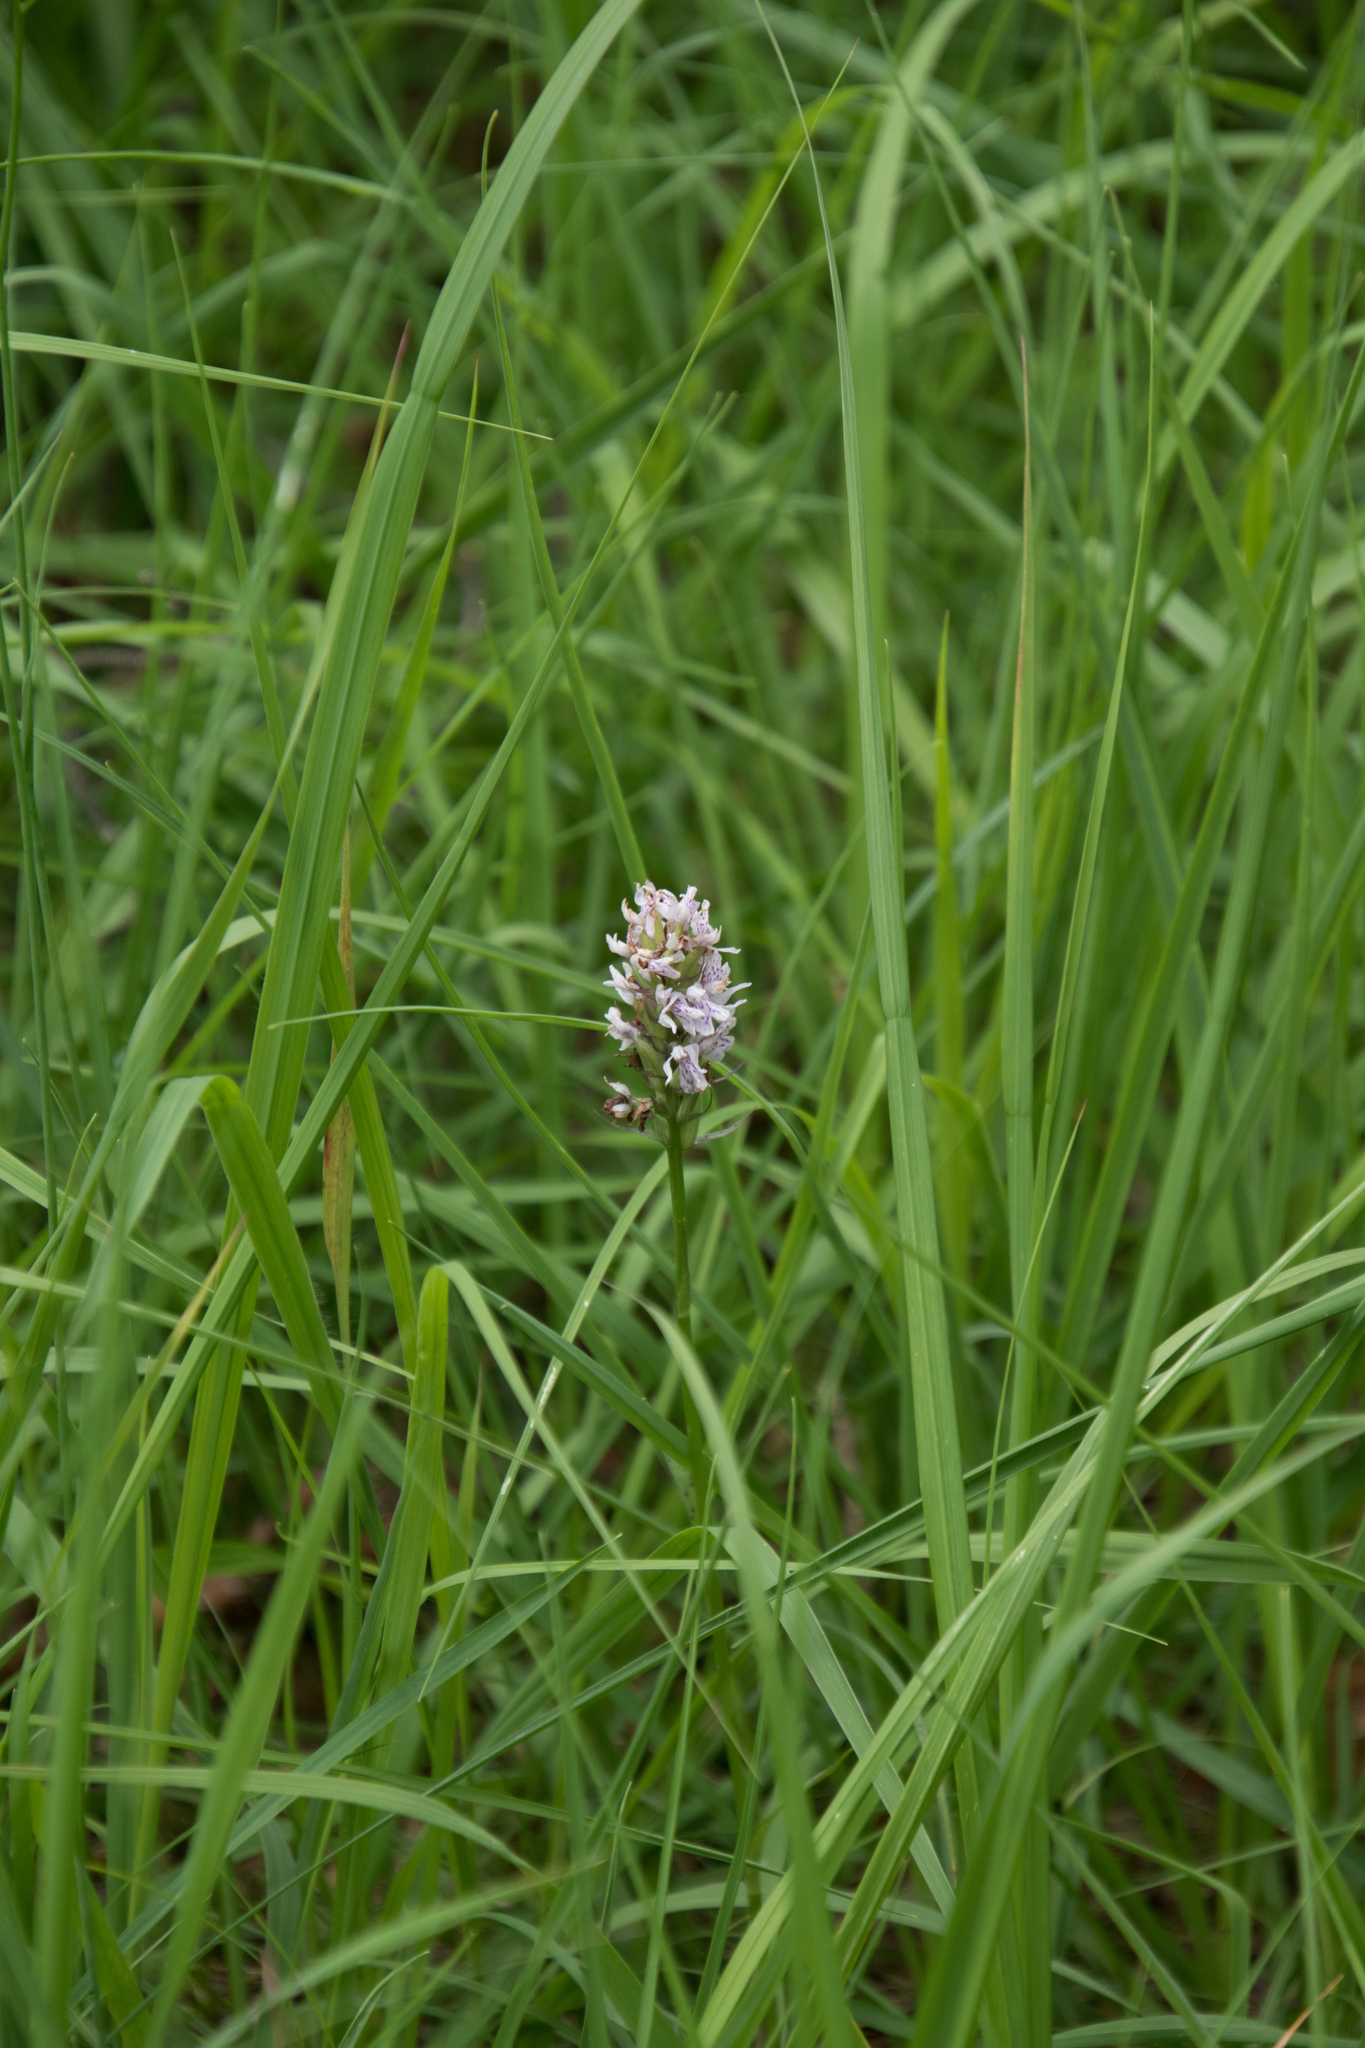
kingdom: Plantae
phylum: Tracheophyta
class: Liliopsida
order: Asparagales
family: Orchidaceae
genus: Dactylorhiza
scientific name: Dactylorhiza maculata
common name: Heath spotted-orchid
